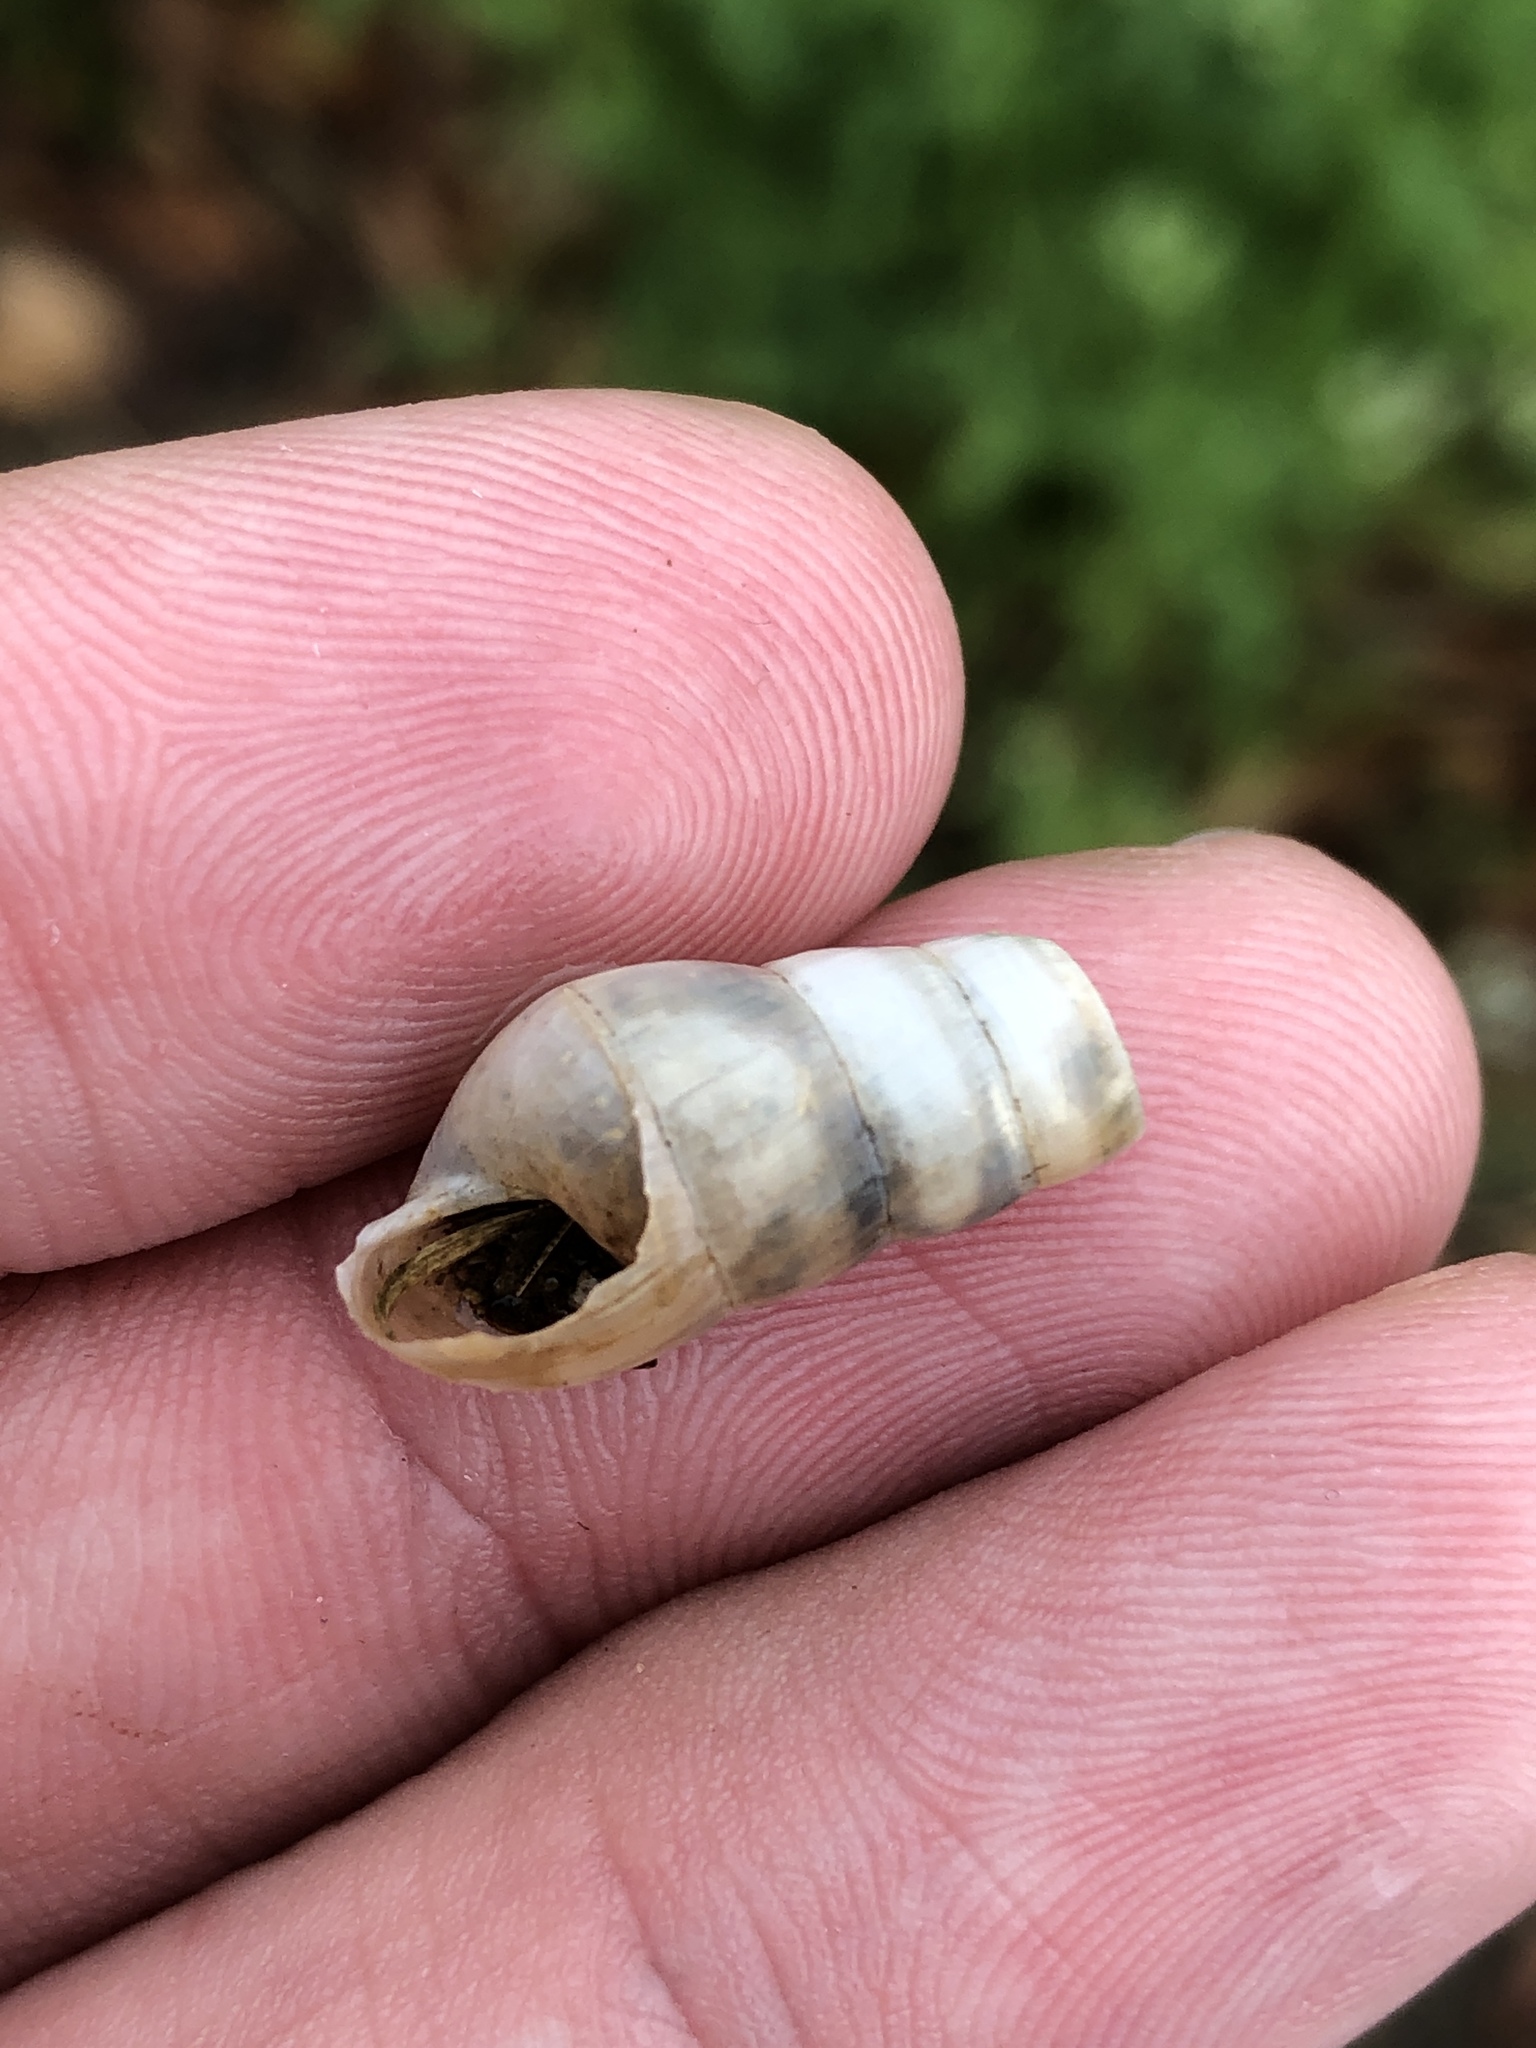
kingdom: Animalia
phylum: Mollusca
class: Gastropoda
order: Stylommatophora
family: Achatinidae
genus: Rumina
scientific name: Rumina decollata
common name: Decollate snail
